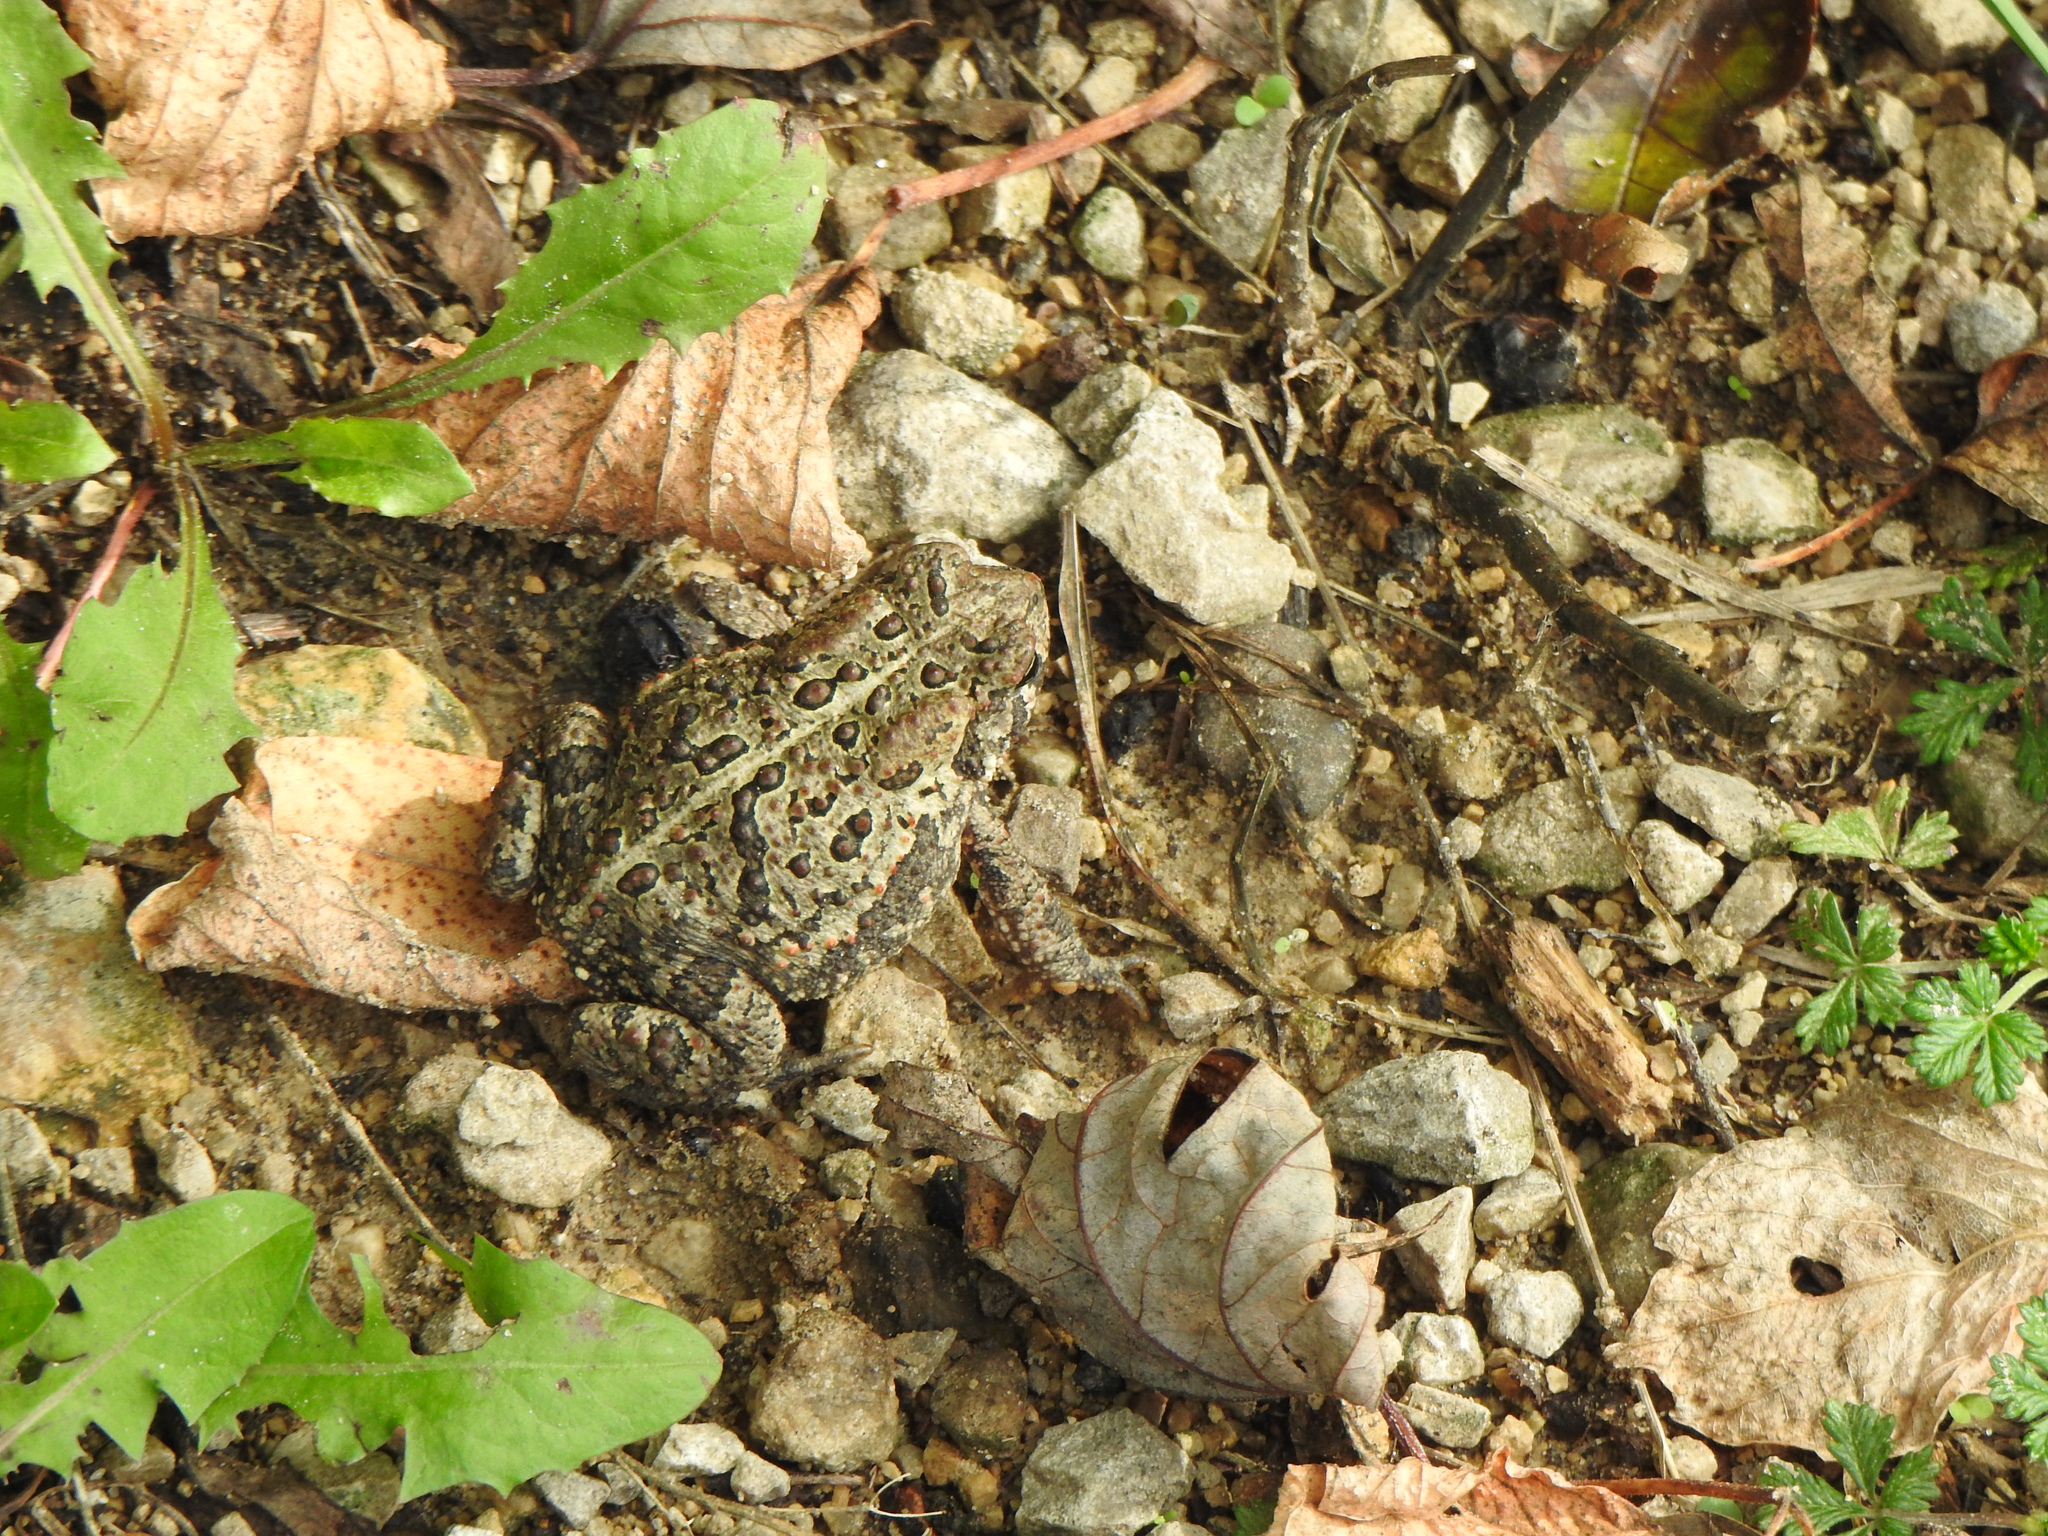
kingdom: Animalia
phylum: Chordata
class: Amphibia
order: Anura
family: Bufonidae
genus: Anaxyrus
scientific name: Anaxyrus americanus
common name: American toad
